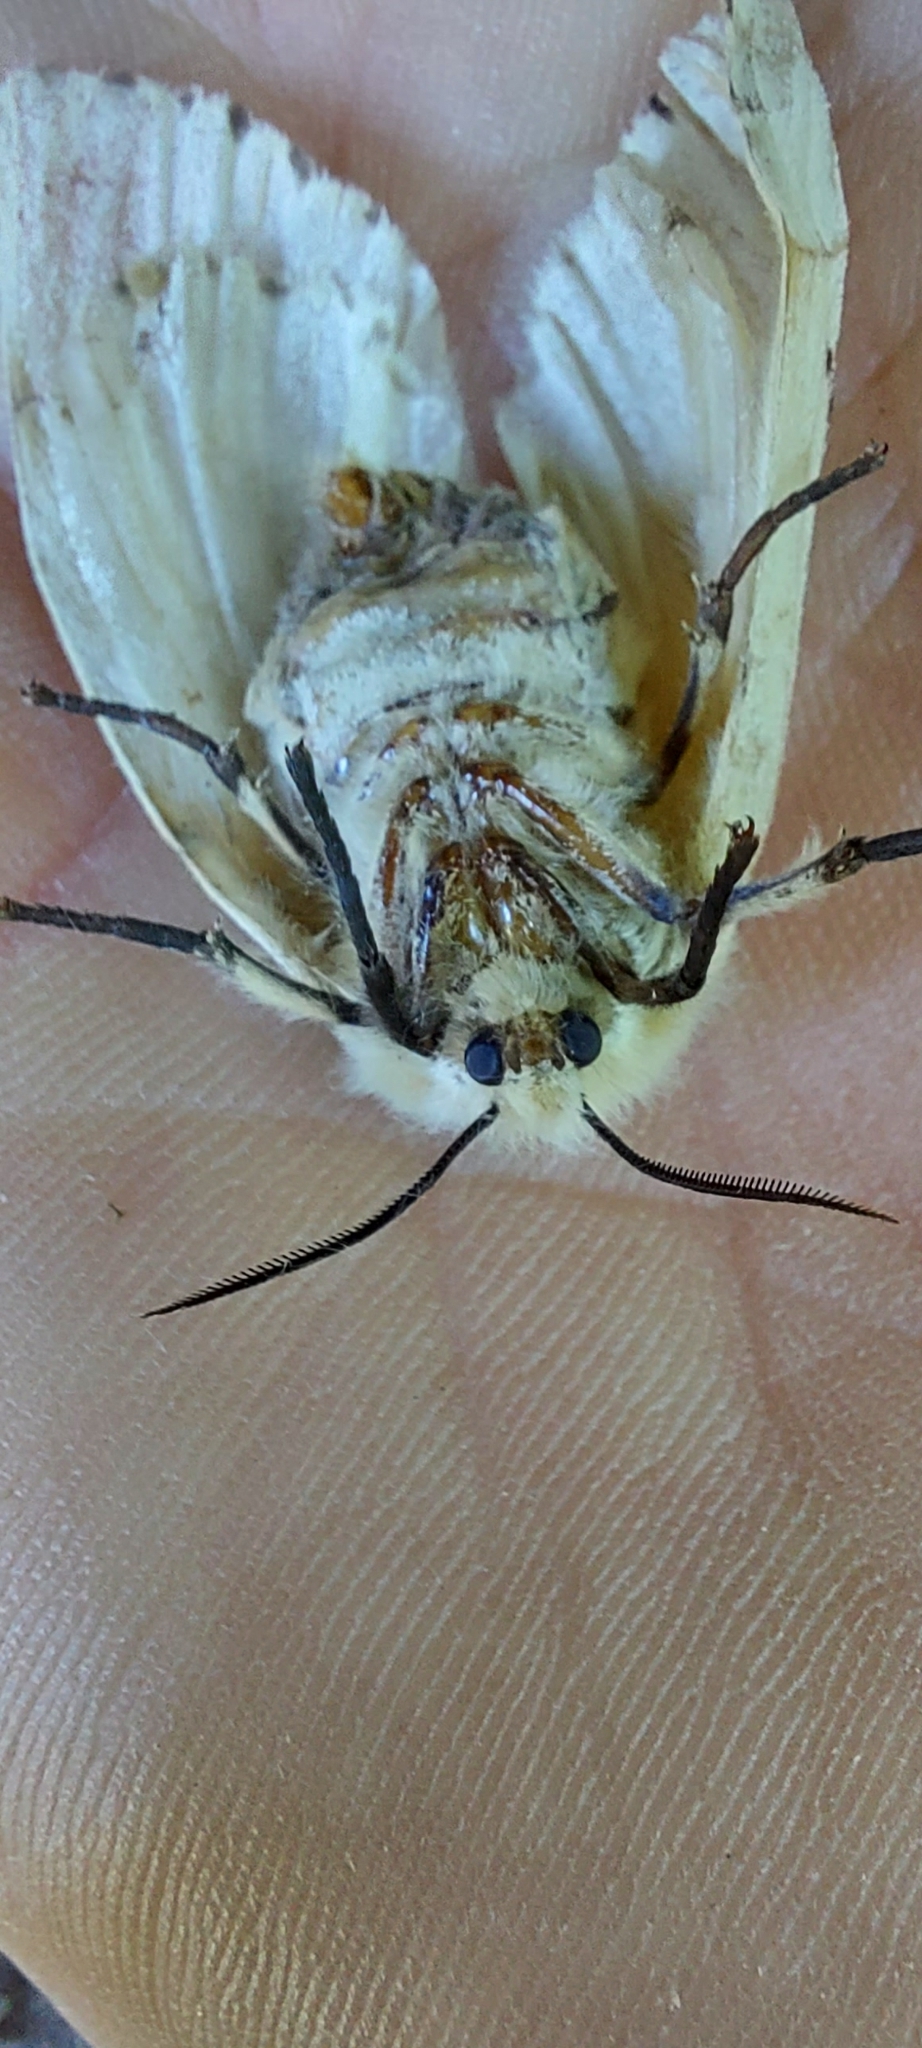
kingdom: Animalia
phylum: Arthropoda
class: Insecta
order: Lepidoptera
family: Erebidae
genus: Lymantria
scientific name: Lymantria dispar
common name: Gypsy moth
